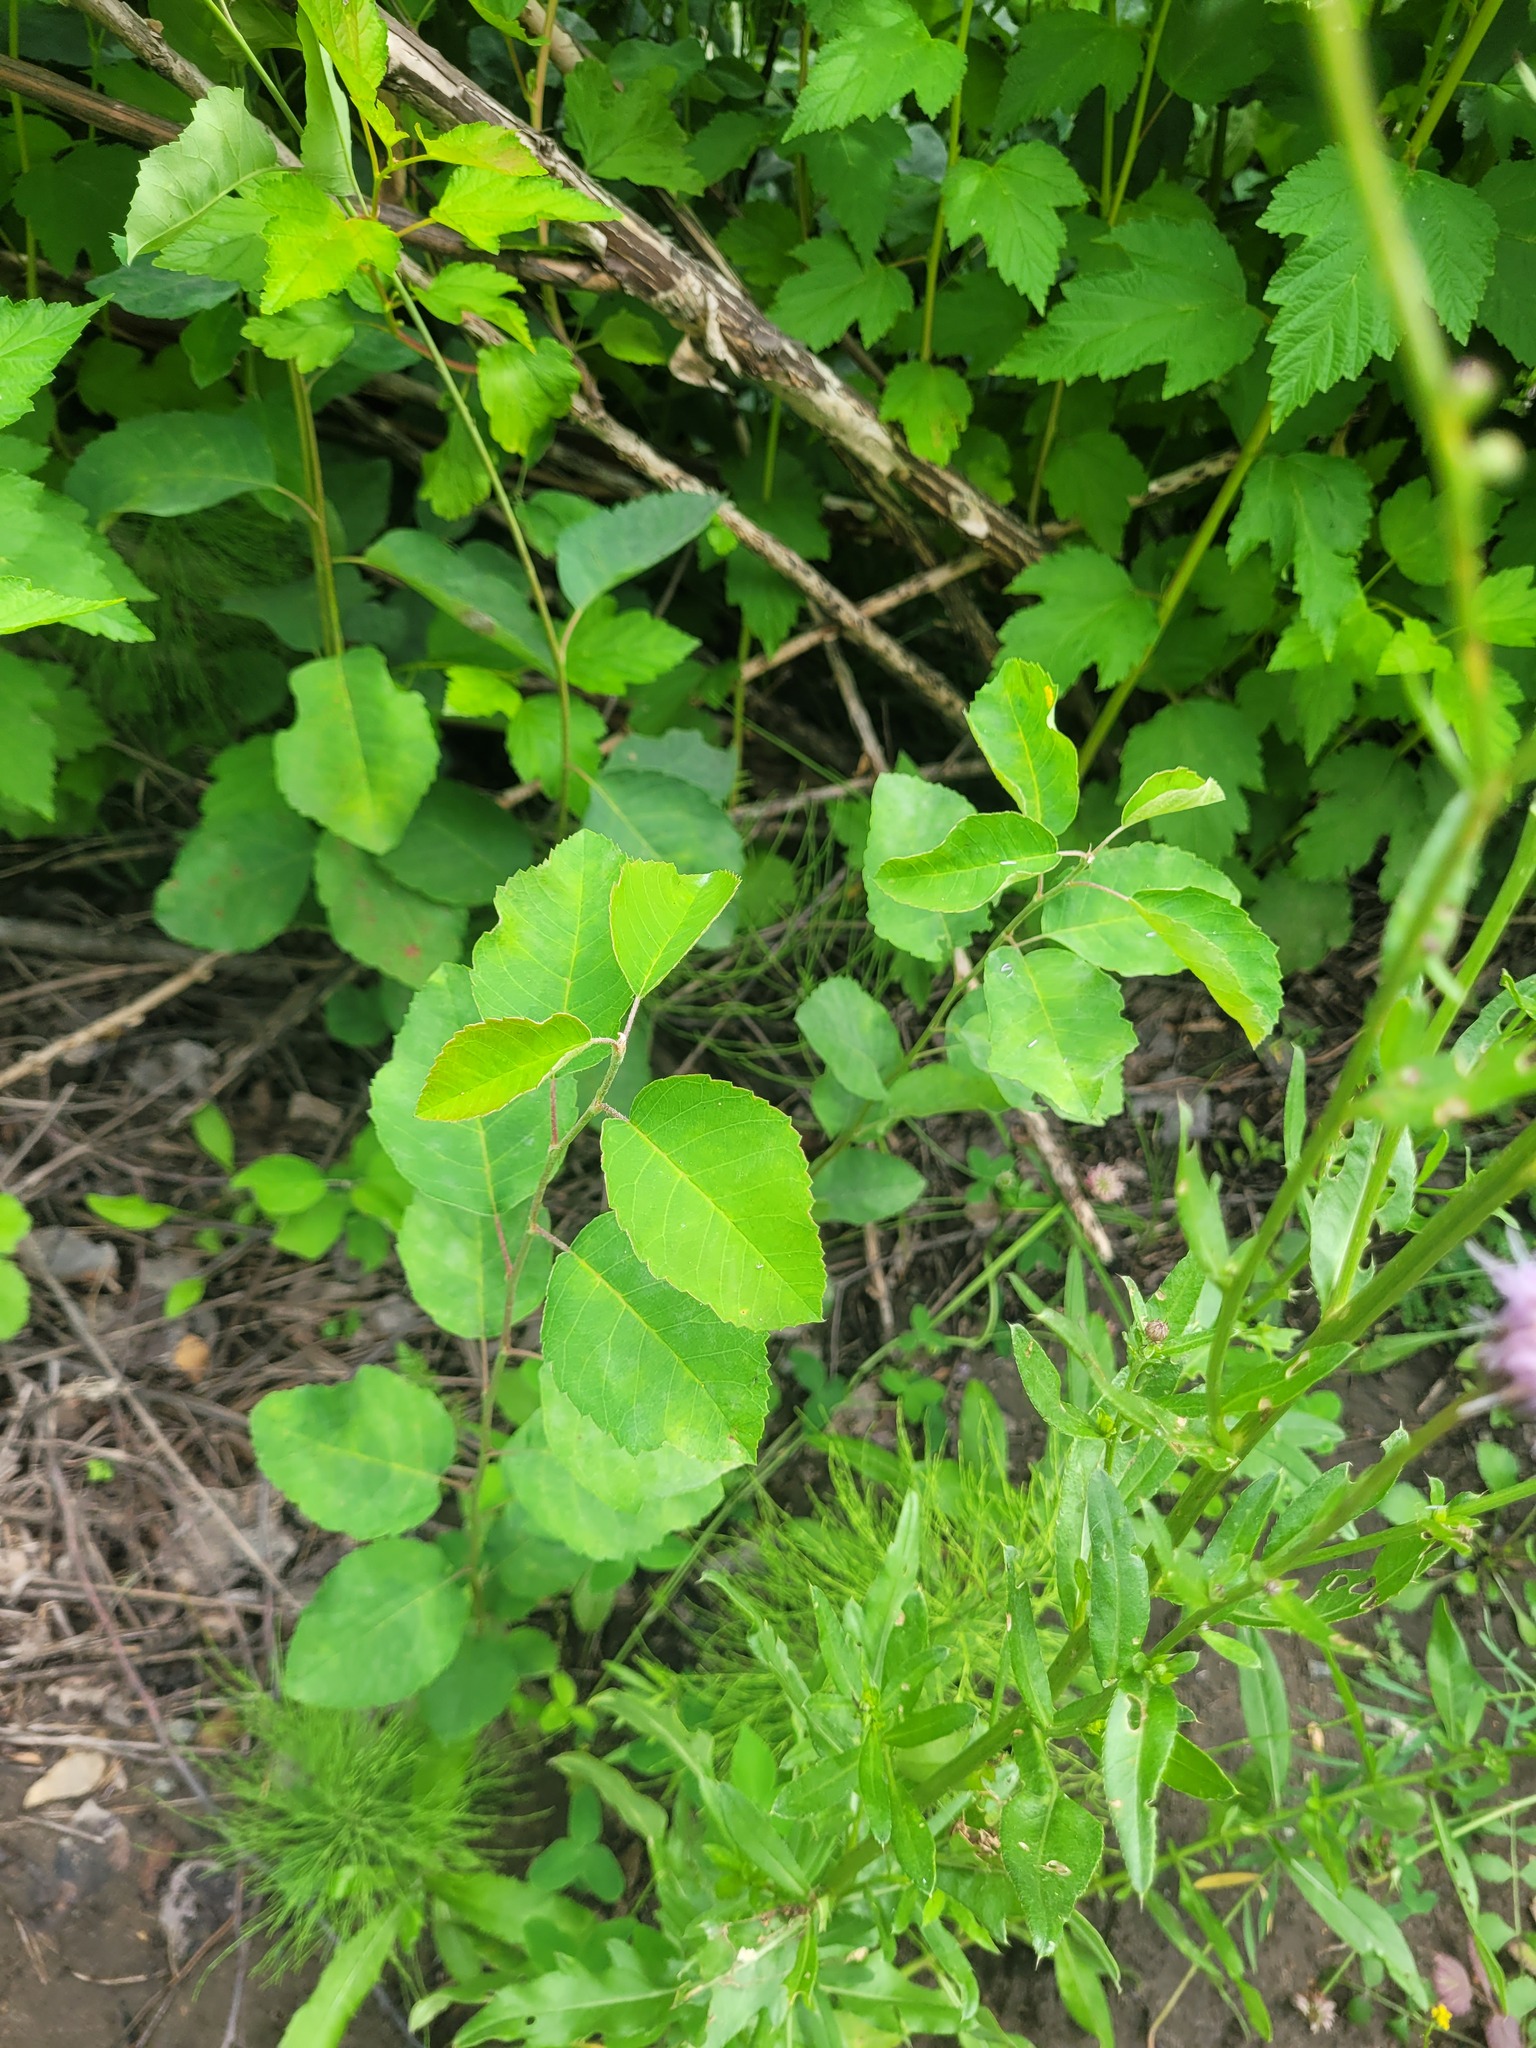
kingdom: Plantae
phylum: Tracheophyta
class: Magnoliopsida
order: Rosales
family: Rosaceae
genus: Amelanchier
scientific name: Amelanchier
